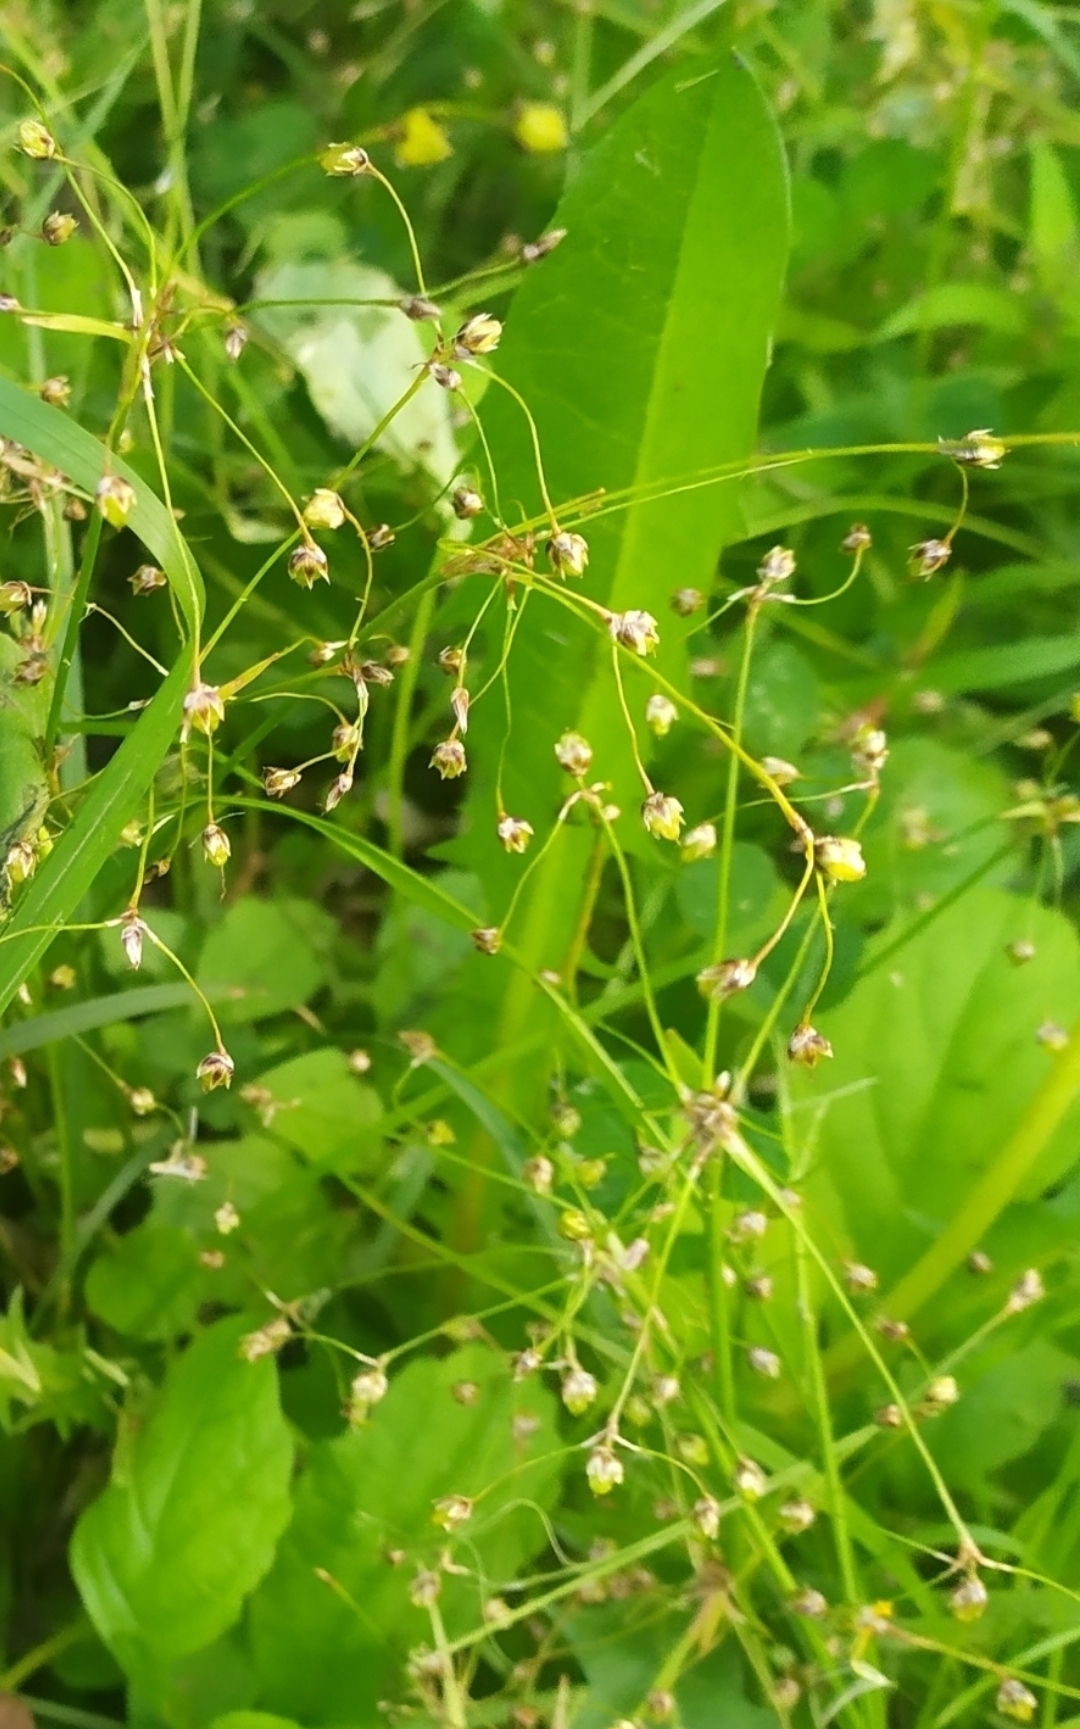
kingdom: Plantae
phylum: Tracheophyta
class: Liliopsida
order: Poales
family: Juncaceae
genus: Luzula
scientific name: Luzula pilosa
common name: Hairy wood-rush
